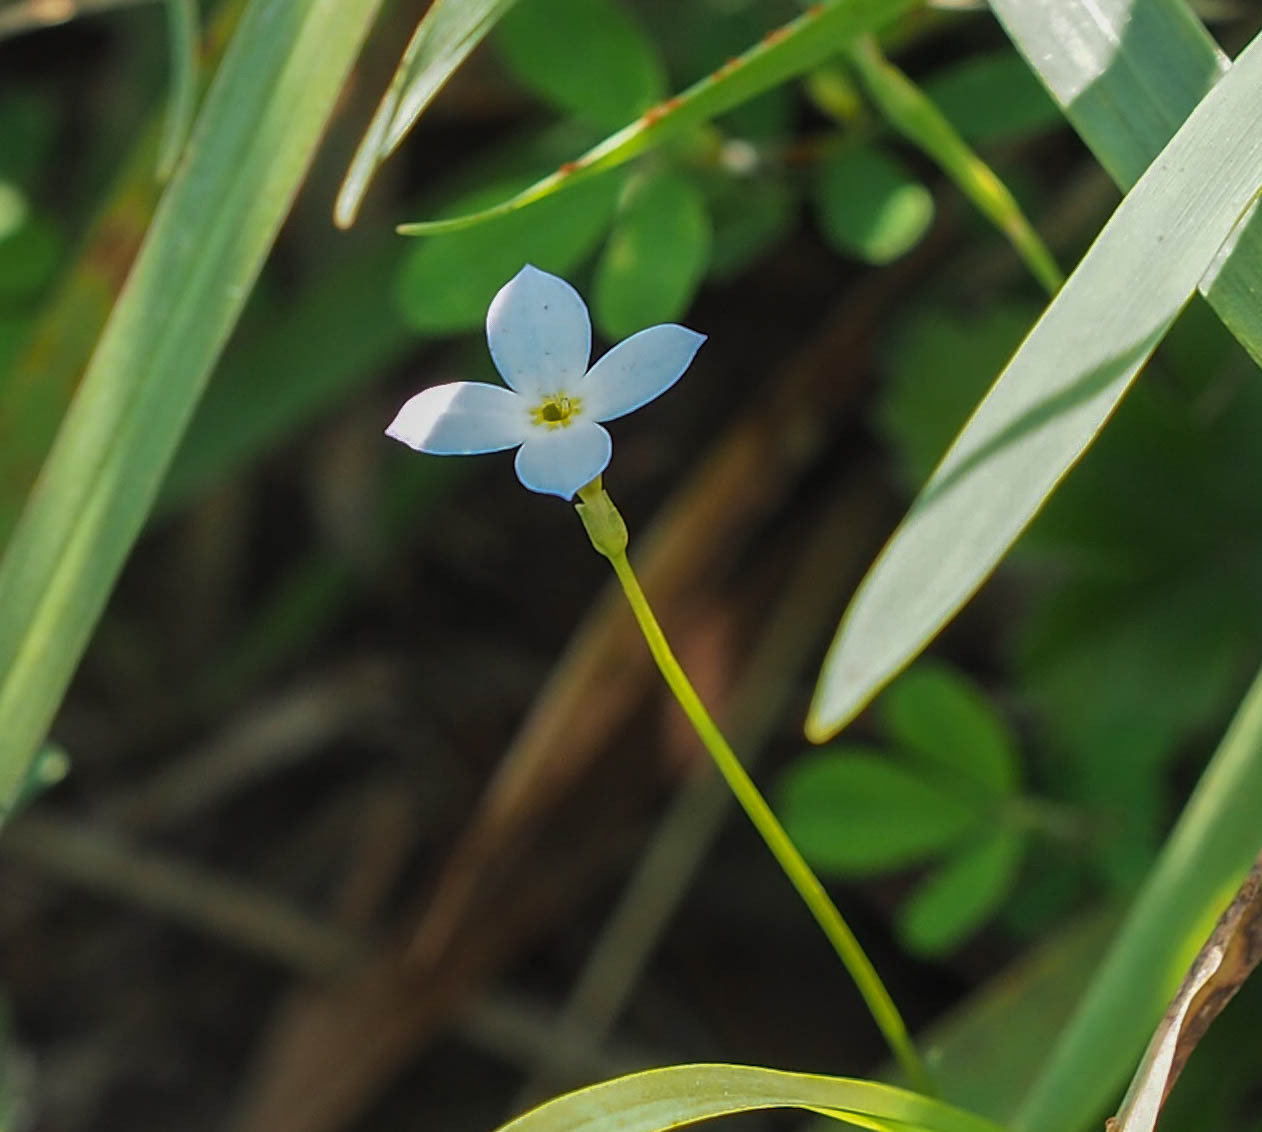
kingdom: Plantae
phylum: Tracheophyta
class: Magnoliopsida
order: Gentianales
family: Rubiaceae
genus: Houstonia
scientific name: Houstonia caerulea
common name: Bluets
